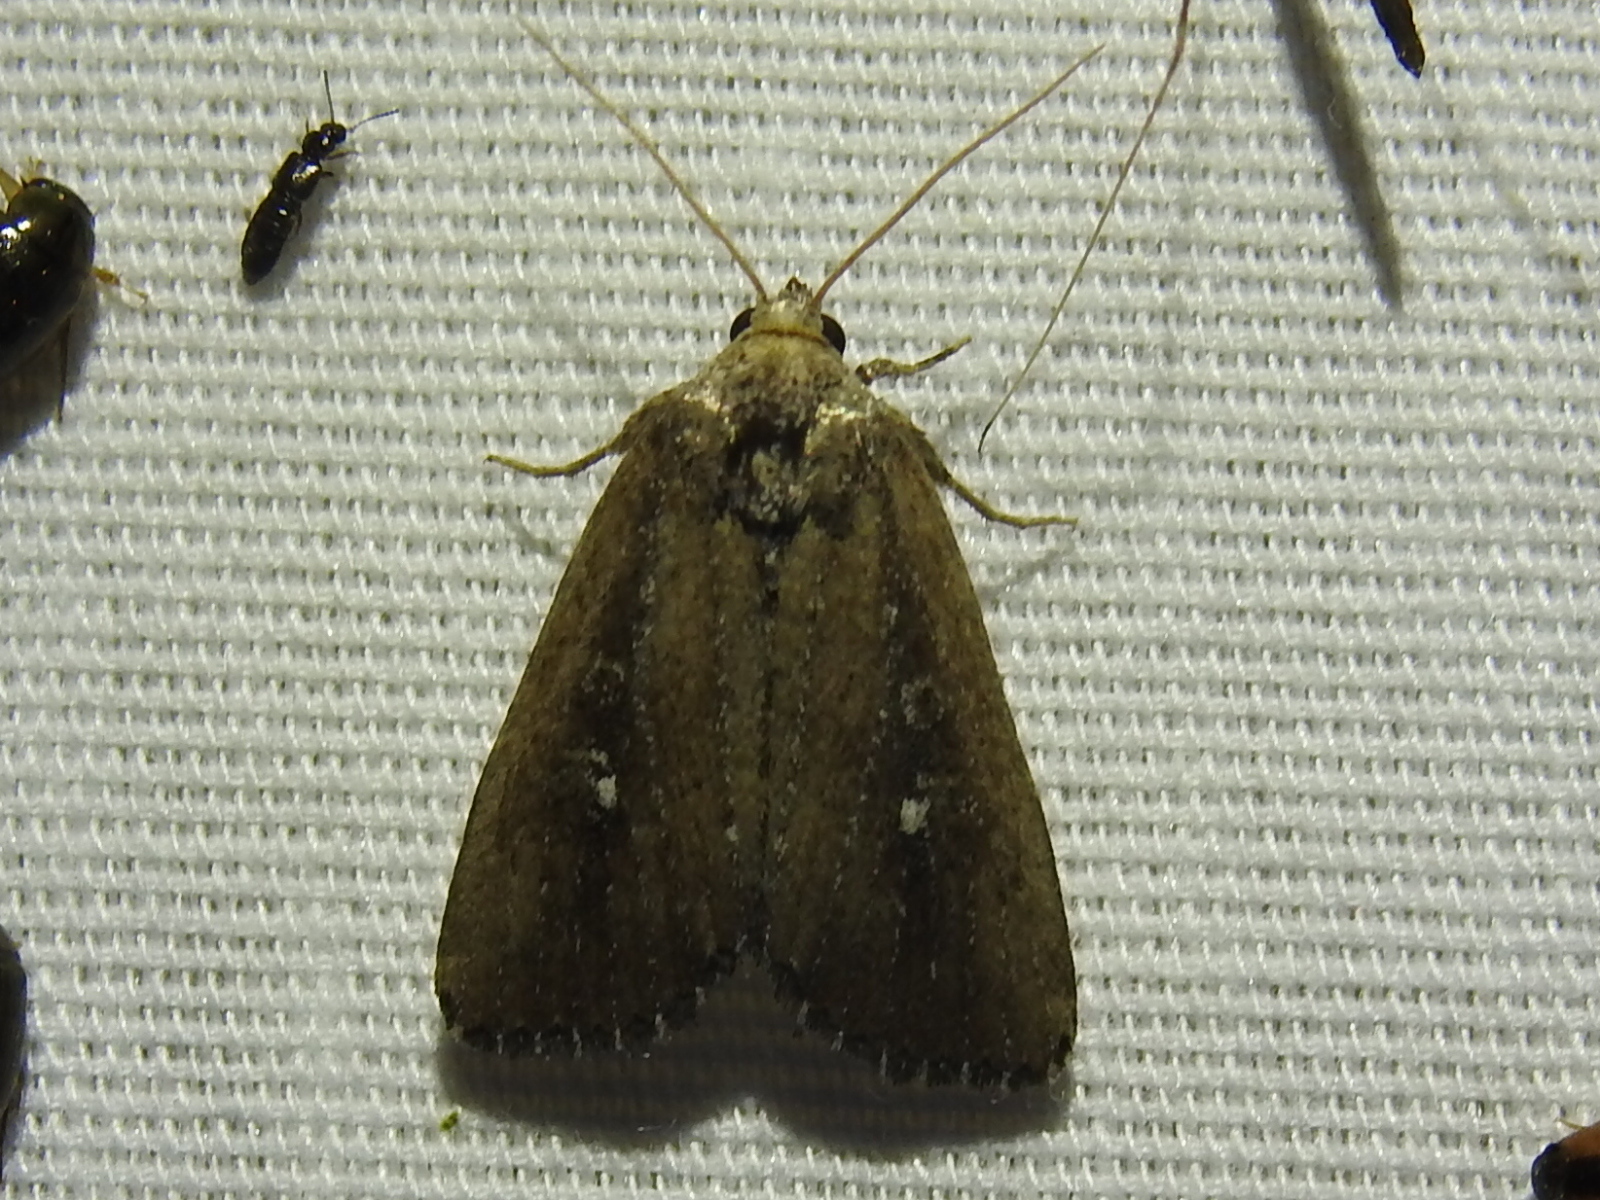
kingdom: Animalia
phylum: Arthropoda
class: Insecta
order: Lepidoptera
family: Noctuidae
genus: Condica
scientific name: Condica videns
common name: White-dotted groundling
